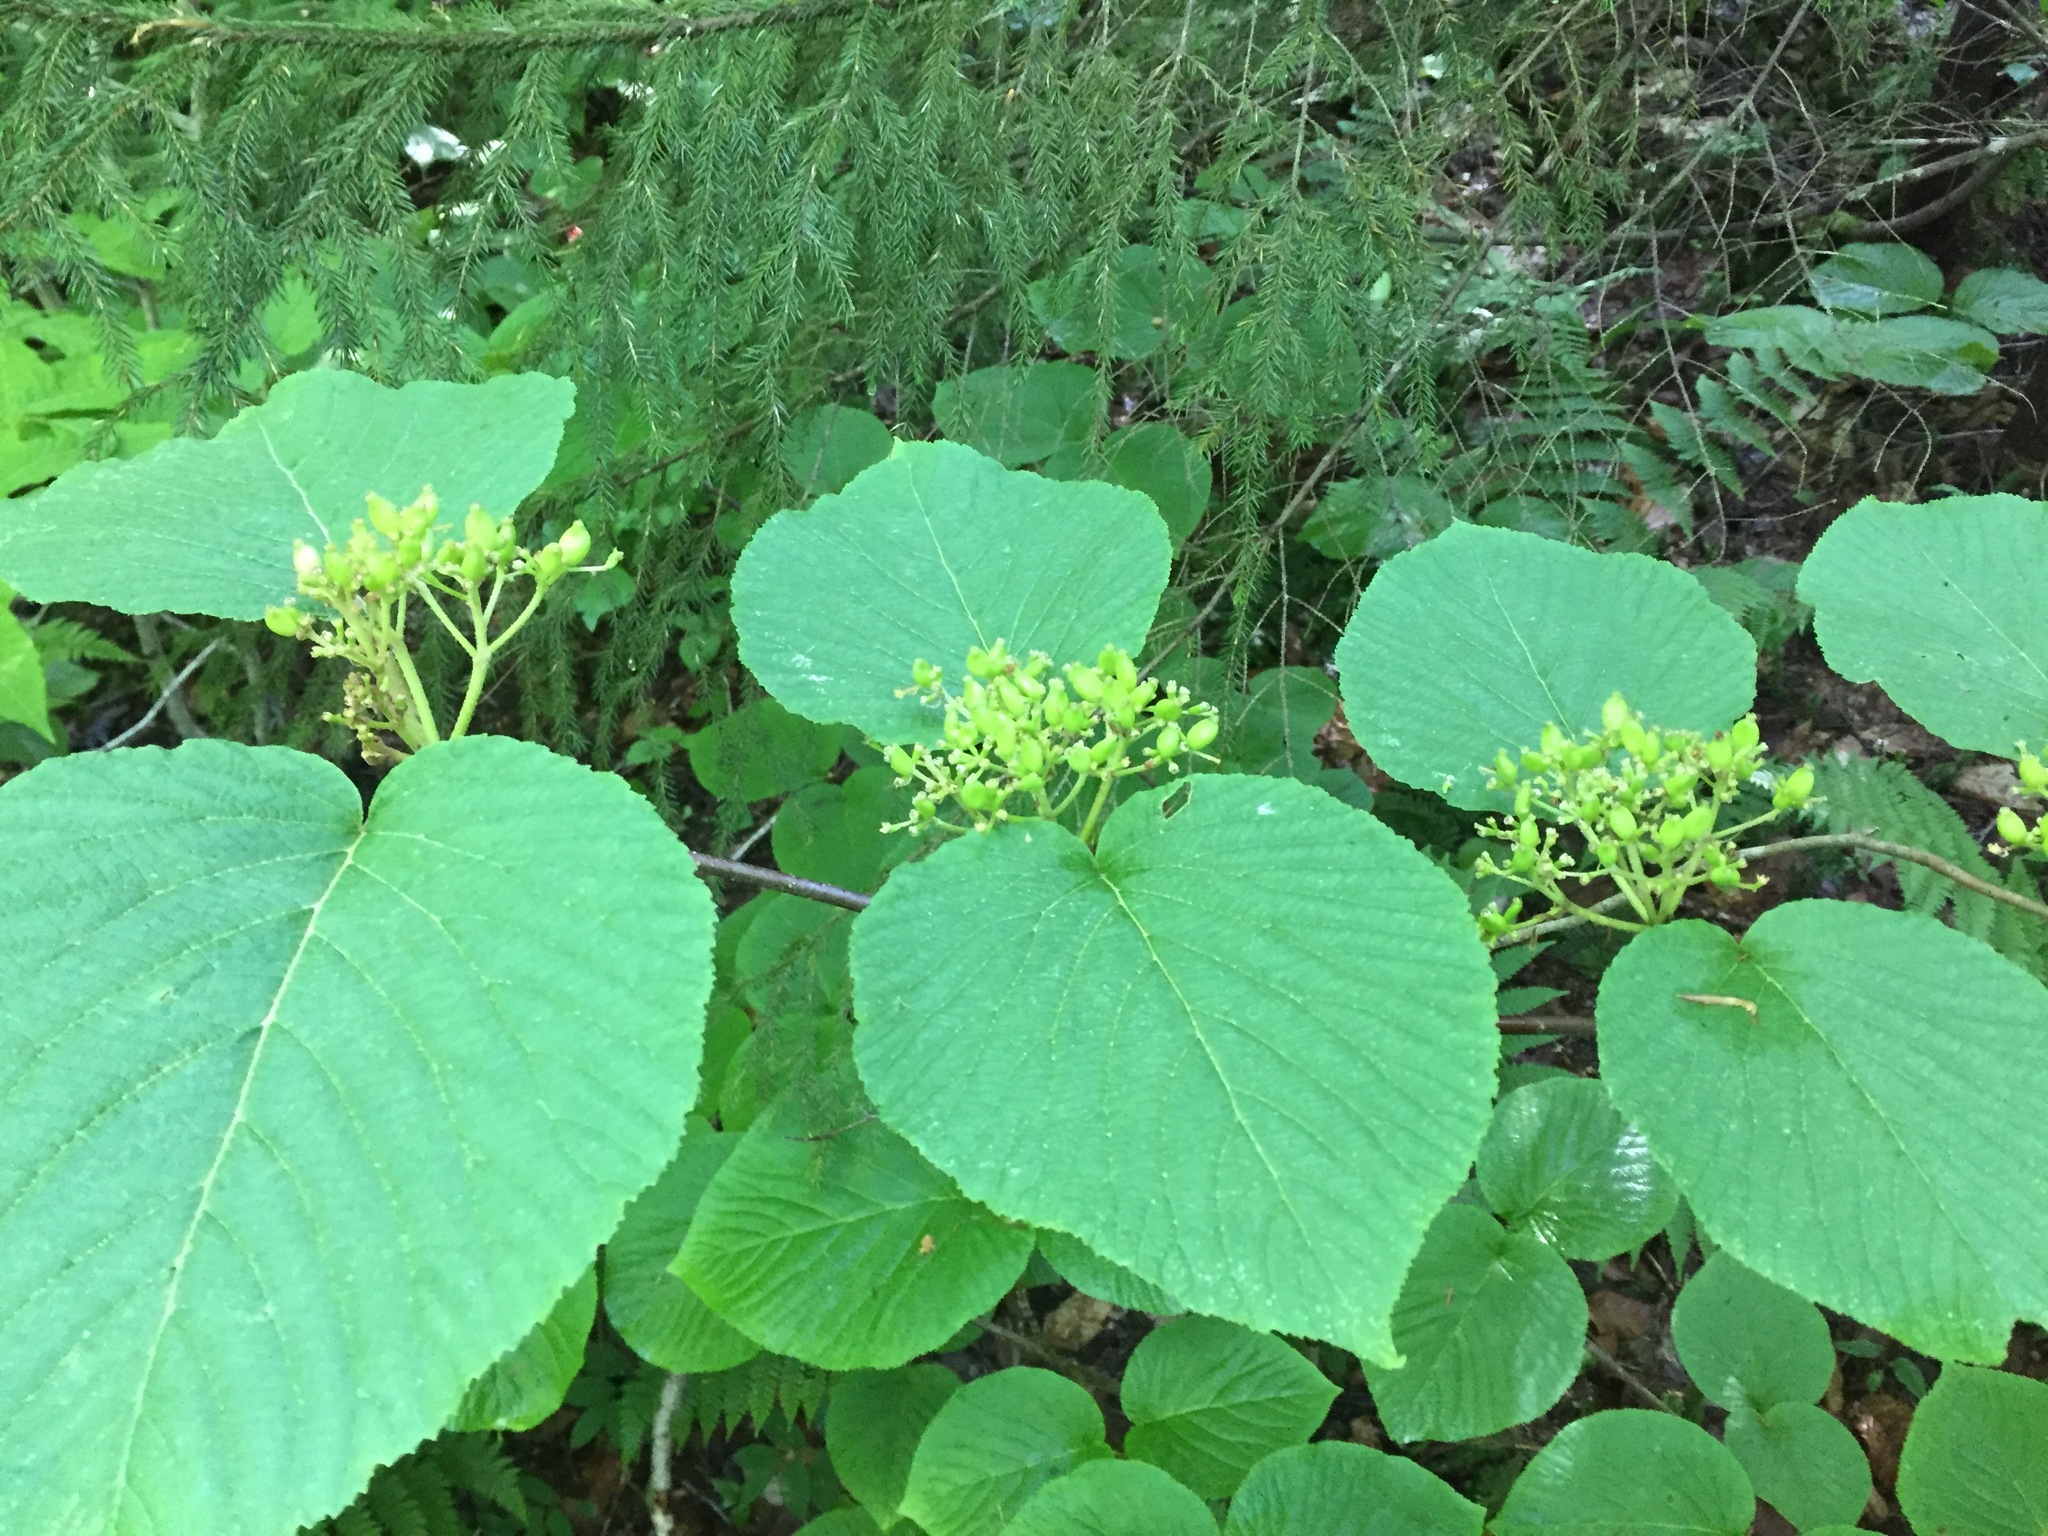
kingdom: Plantae
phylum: Tracheophyta
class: Magnoliopsida
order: Dipsacales
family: Viburnaceae
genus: Viburnum
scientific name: Viburnum lantanoides
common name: Hobblebush
